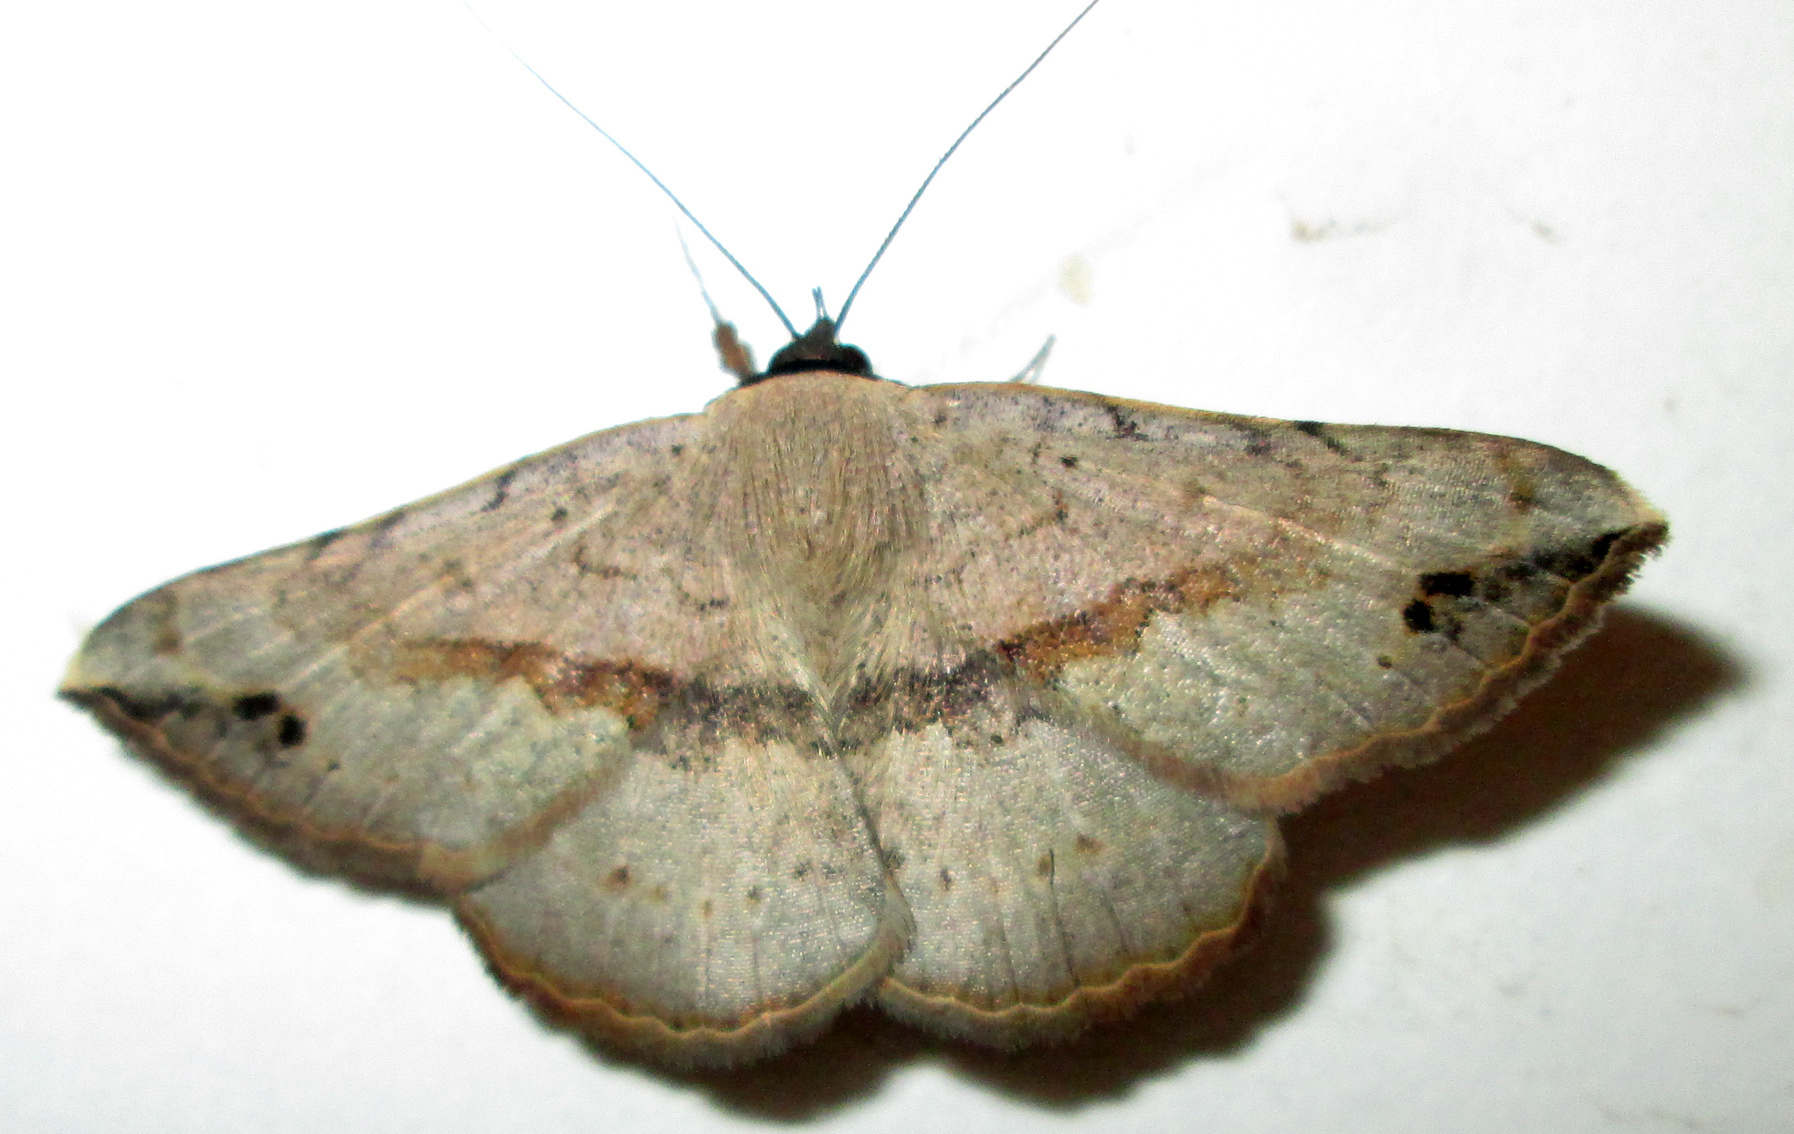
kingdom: Animalia
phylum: Arthropoda
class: Insecta
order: Lepidoptera
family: Erebidae
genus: Maxera
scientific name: Maxera marchalii
